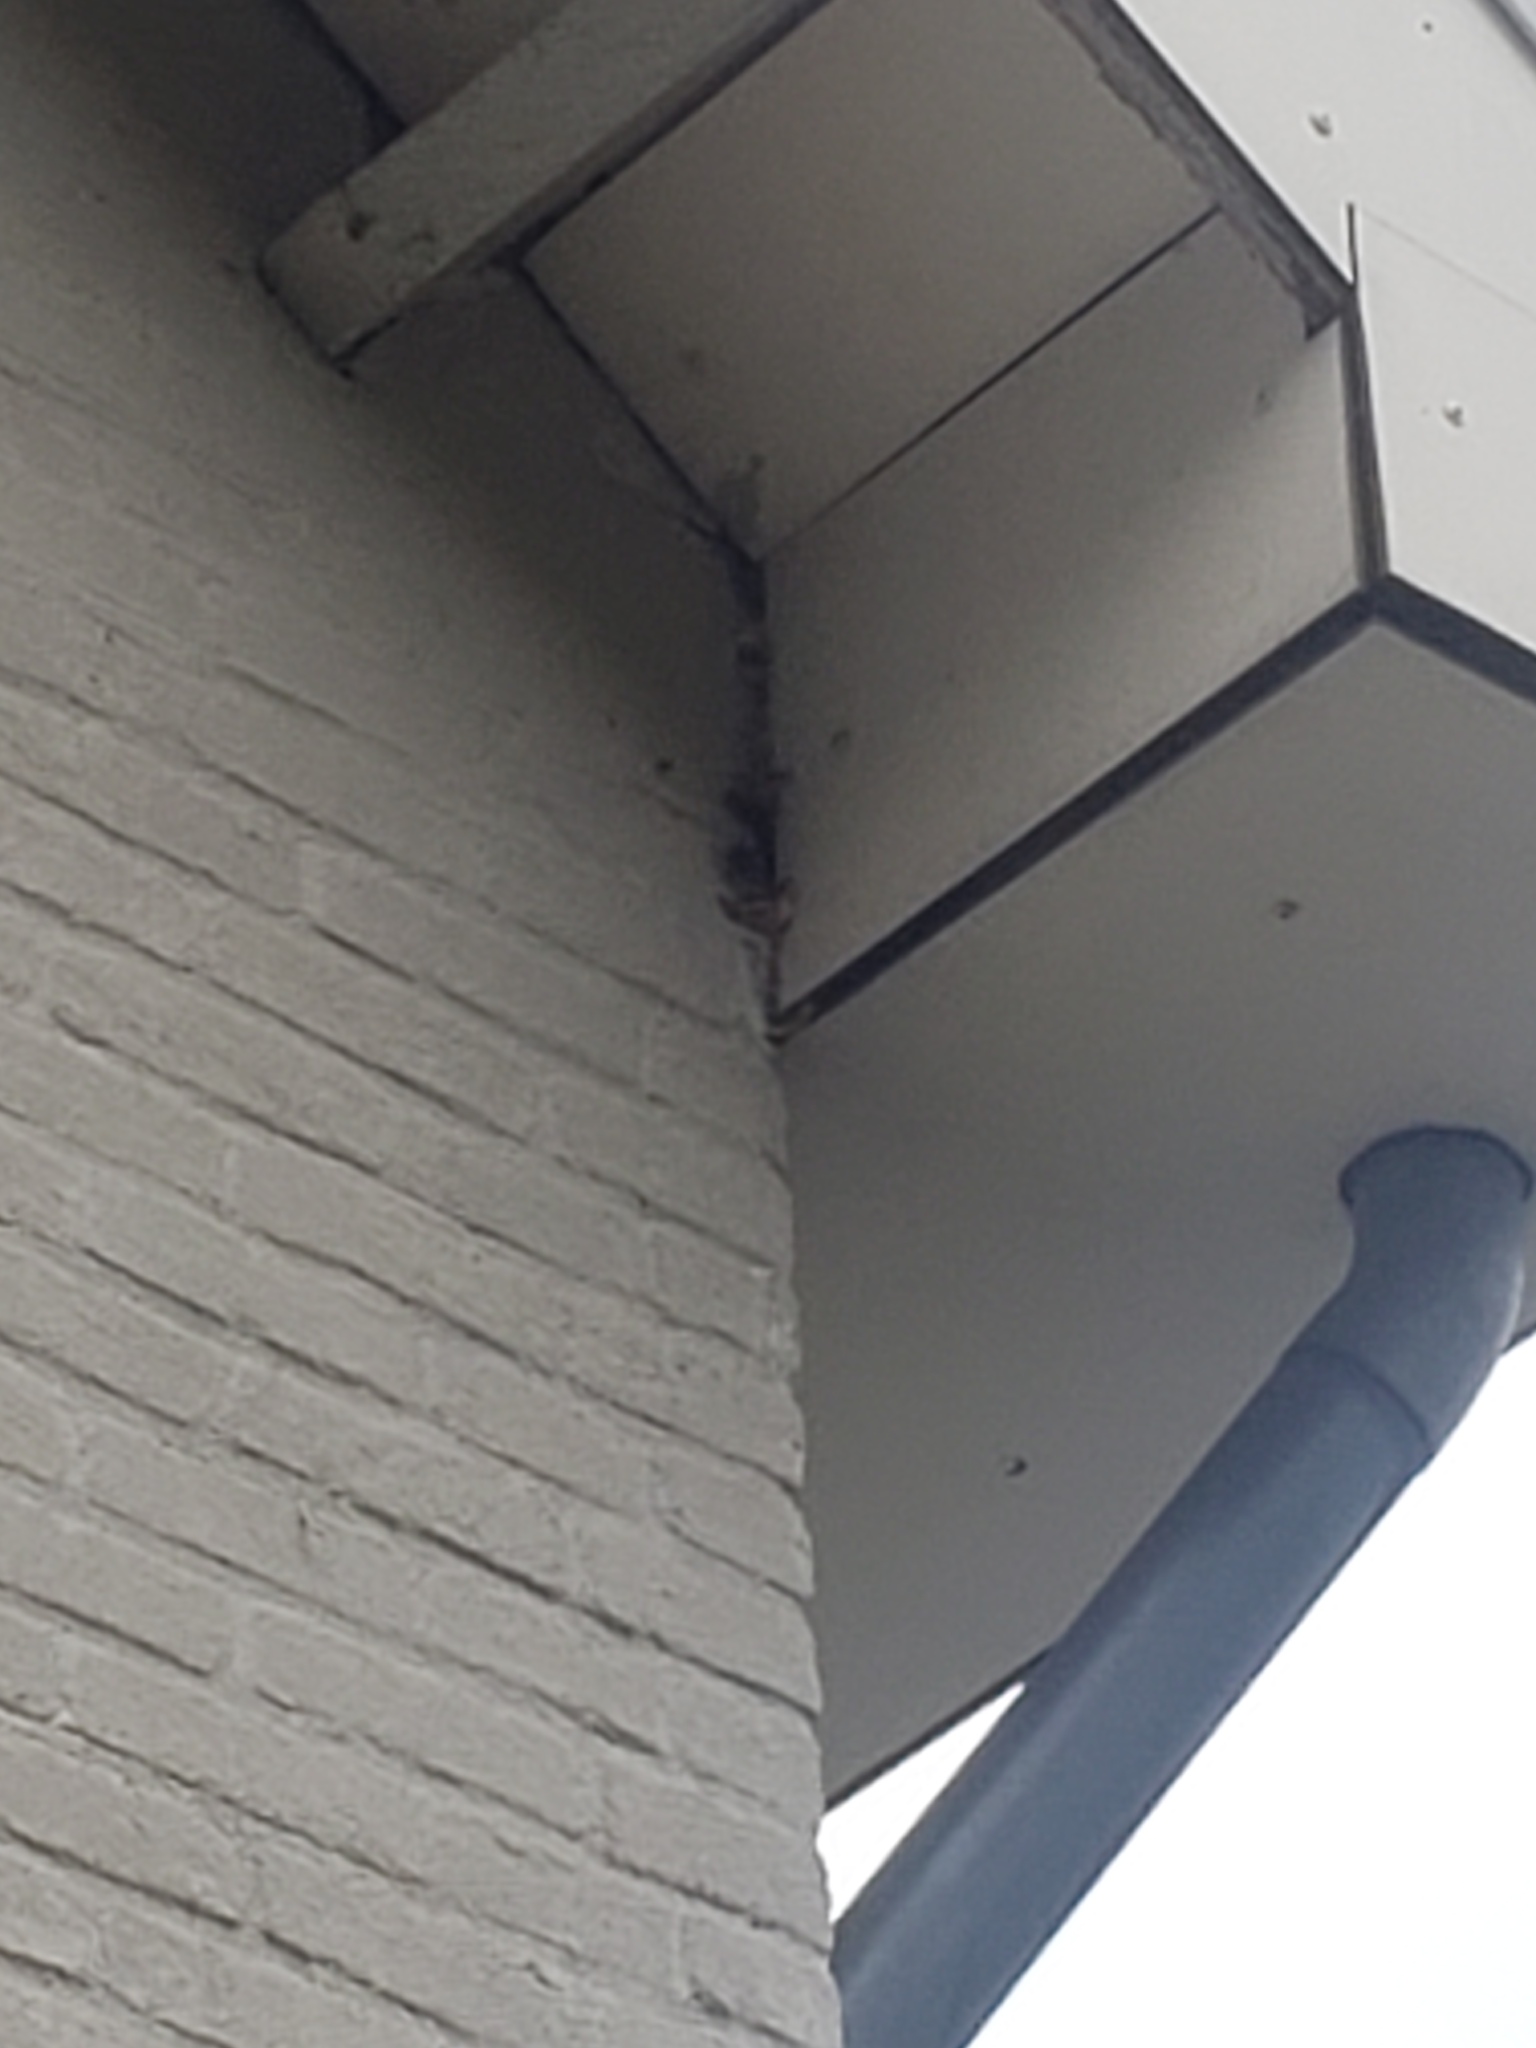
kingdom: Animalia
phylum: Arthropoda
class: Insecta
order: Hymenoptera
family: Vespidae
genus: Vespa
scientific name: Vespa crabro
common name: Hornet
